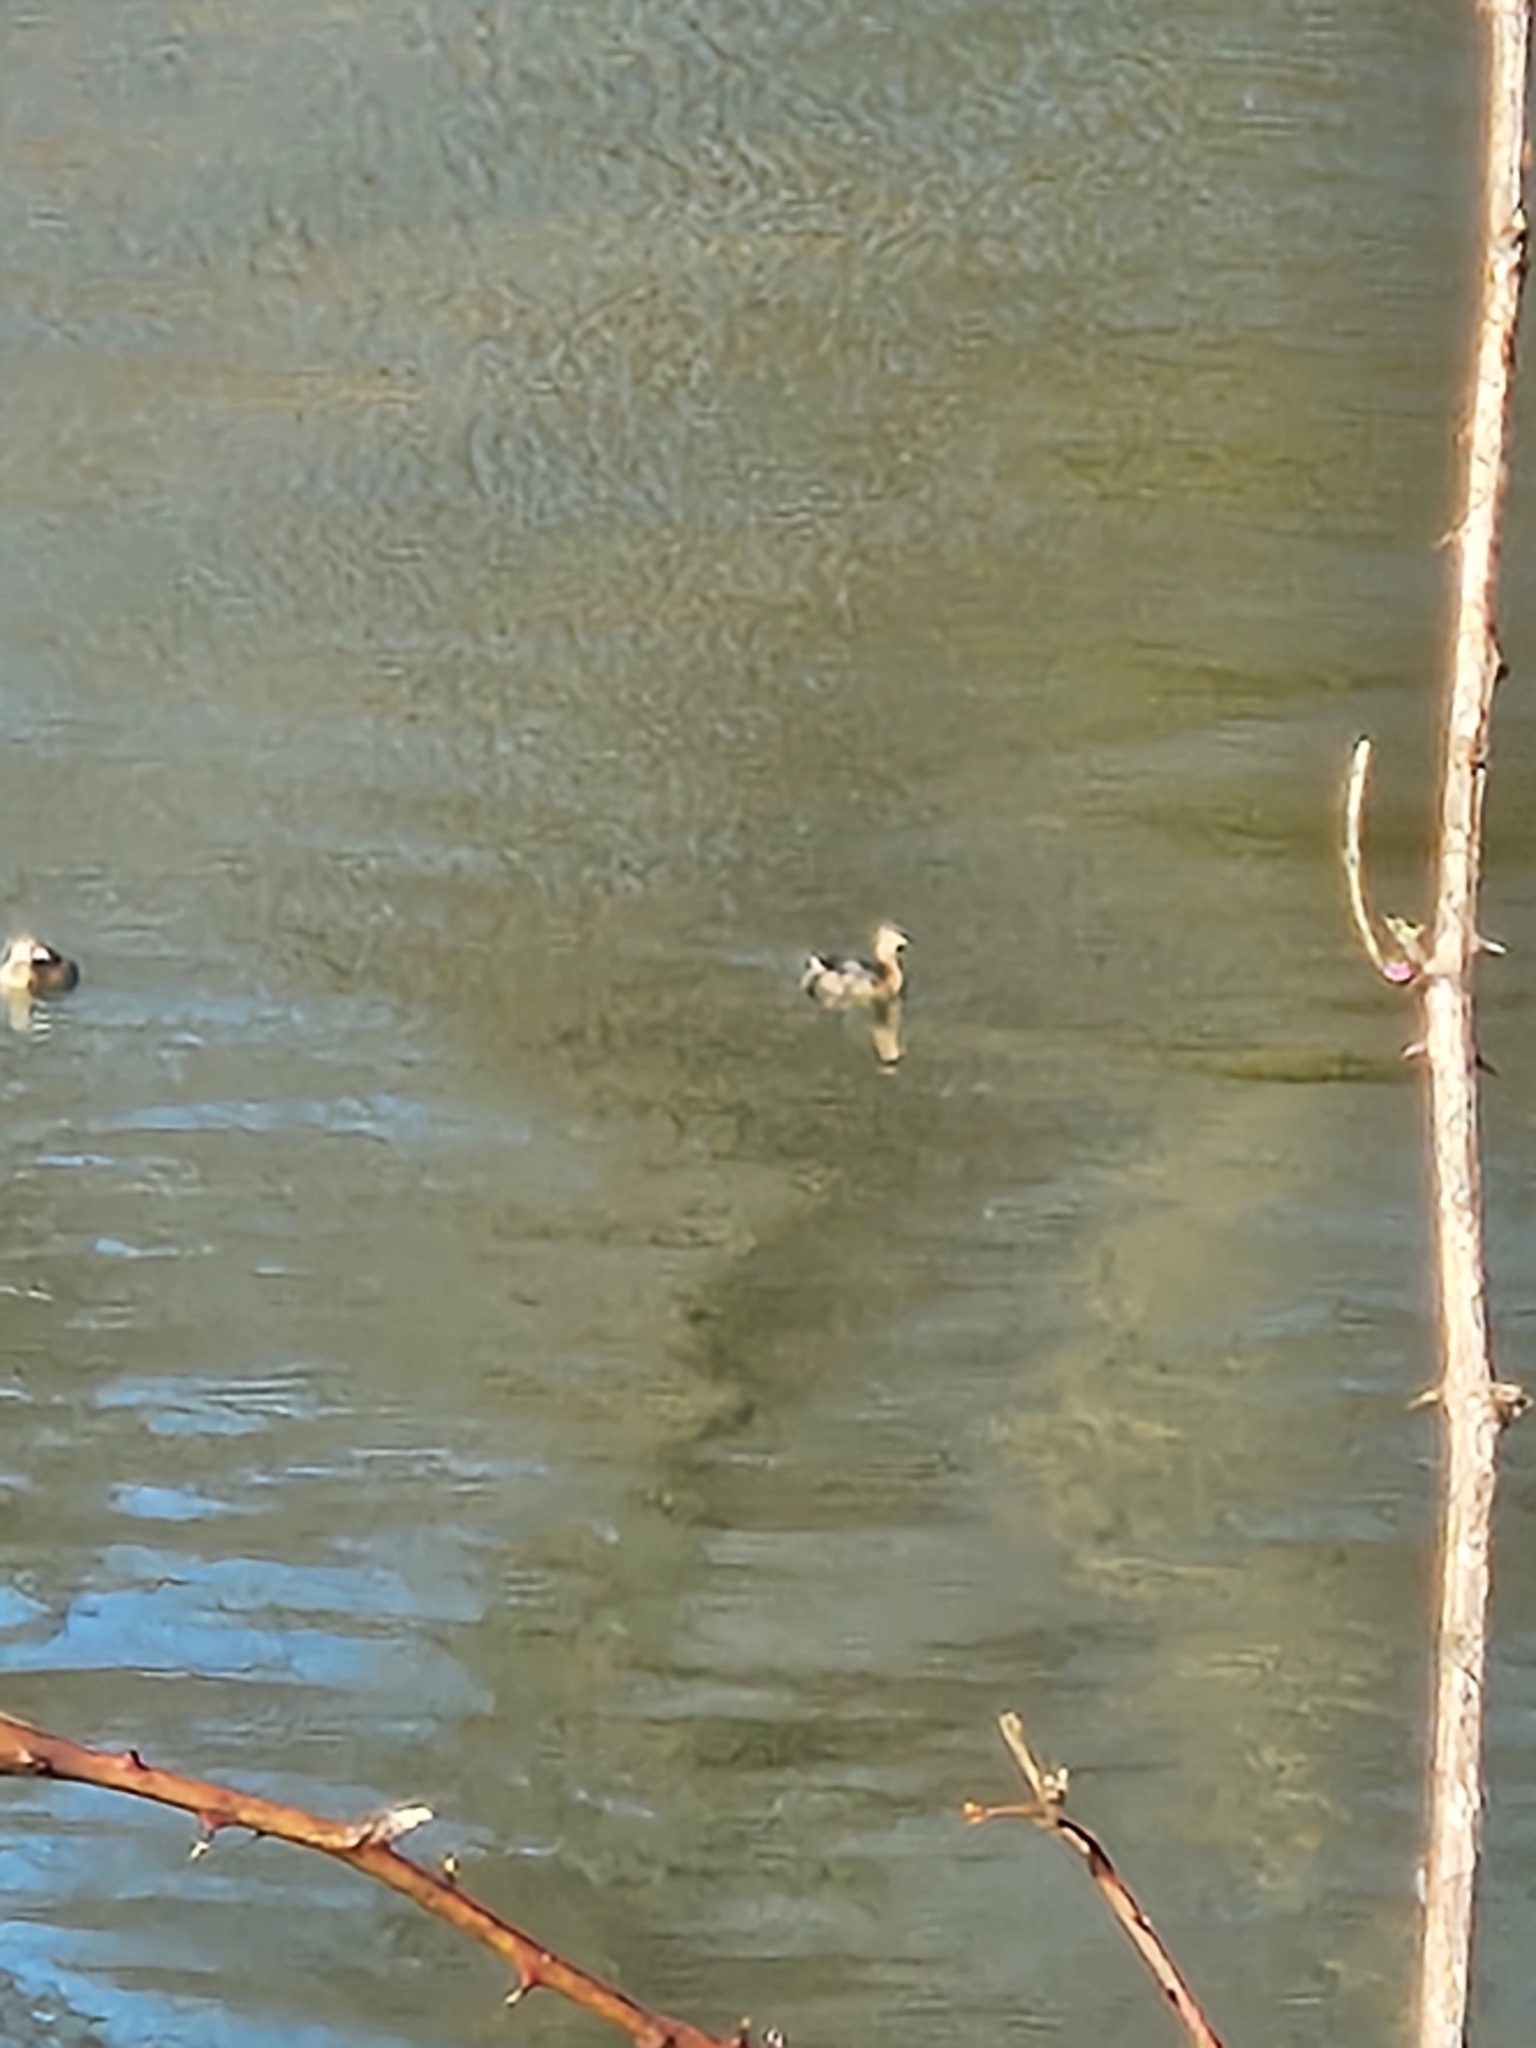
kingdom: Animalia
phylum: Chordata
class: Aves
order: Podicipediformes
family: Podicipedidae
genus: Podilymbus
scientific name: Podilymbus podiceps
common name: Pied-billed grebe
